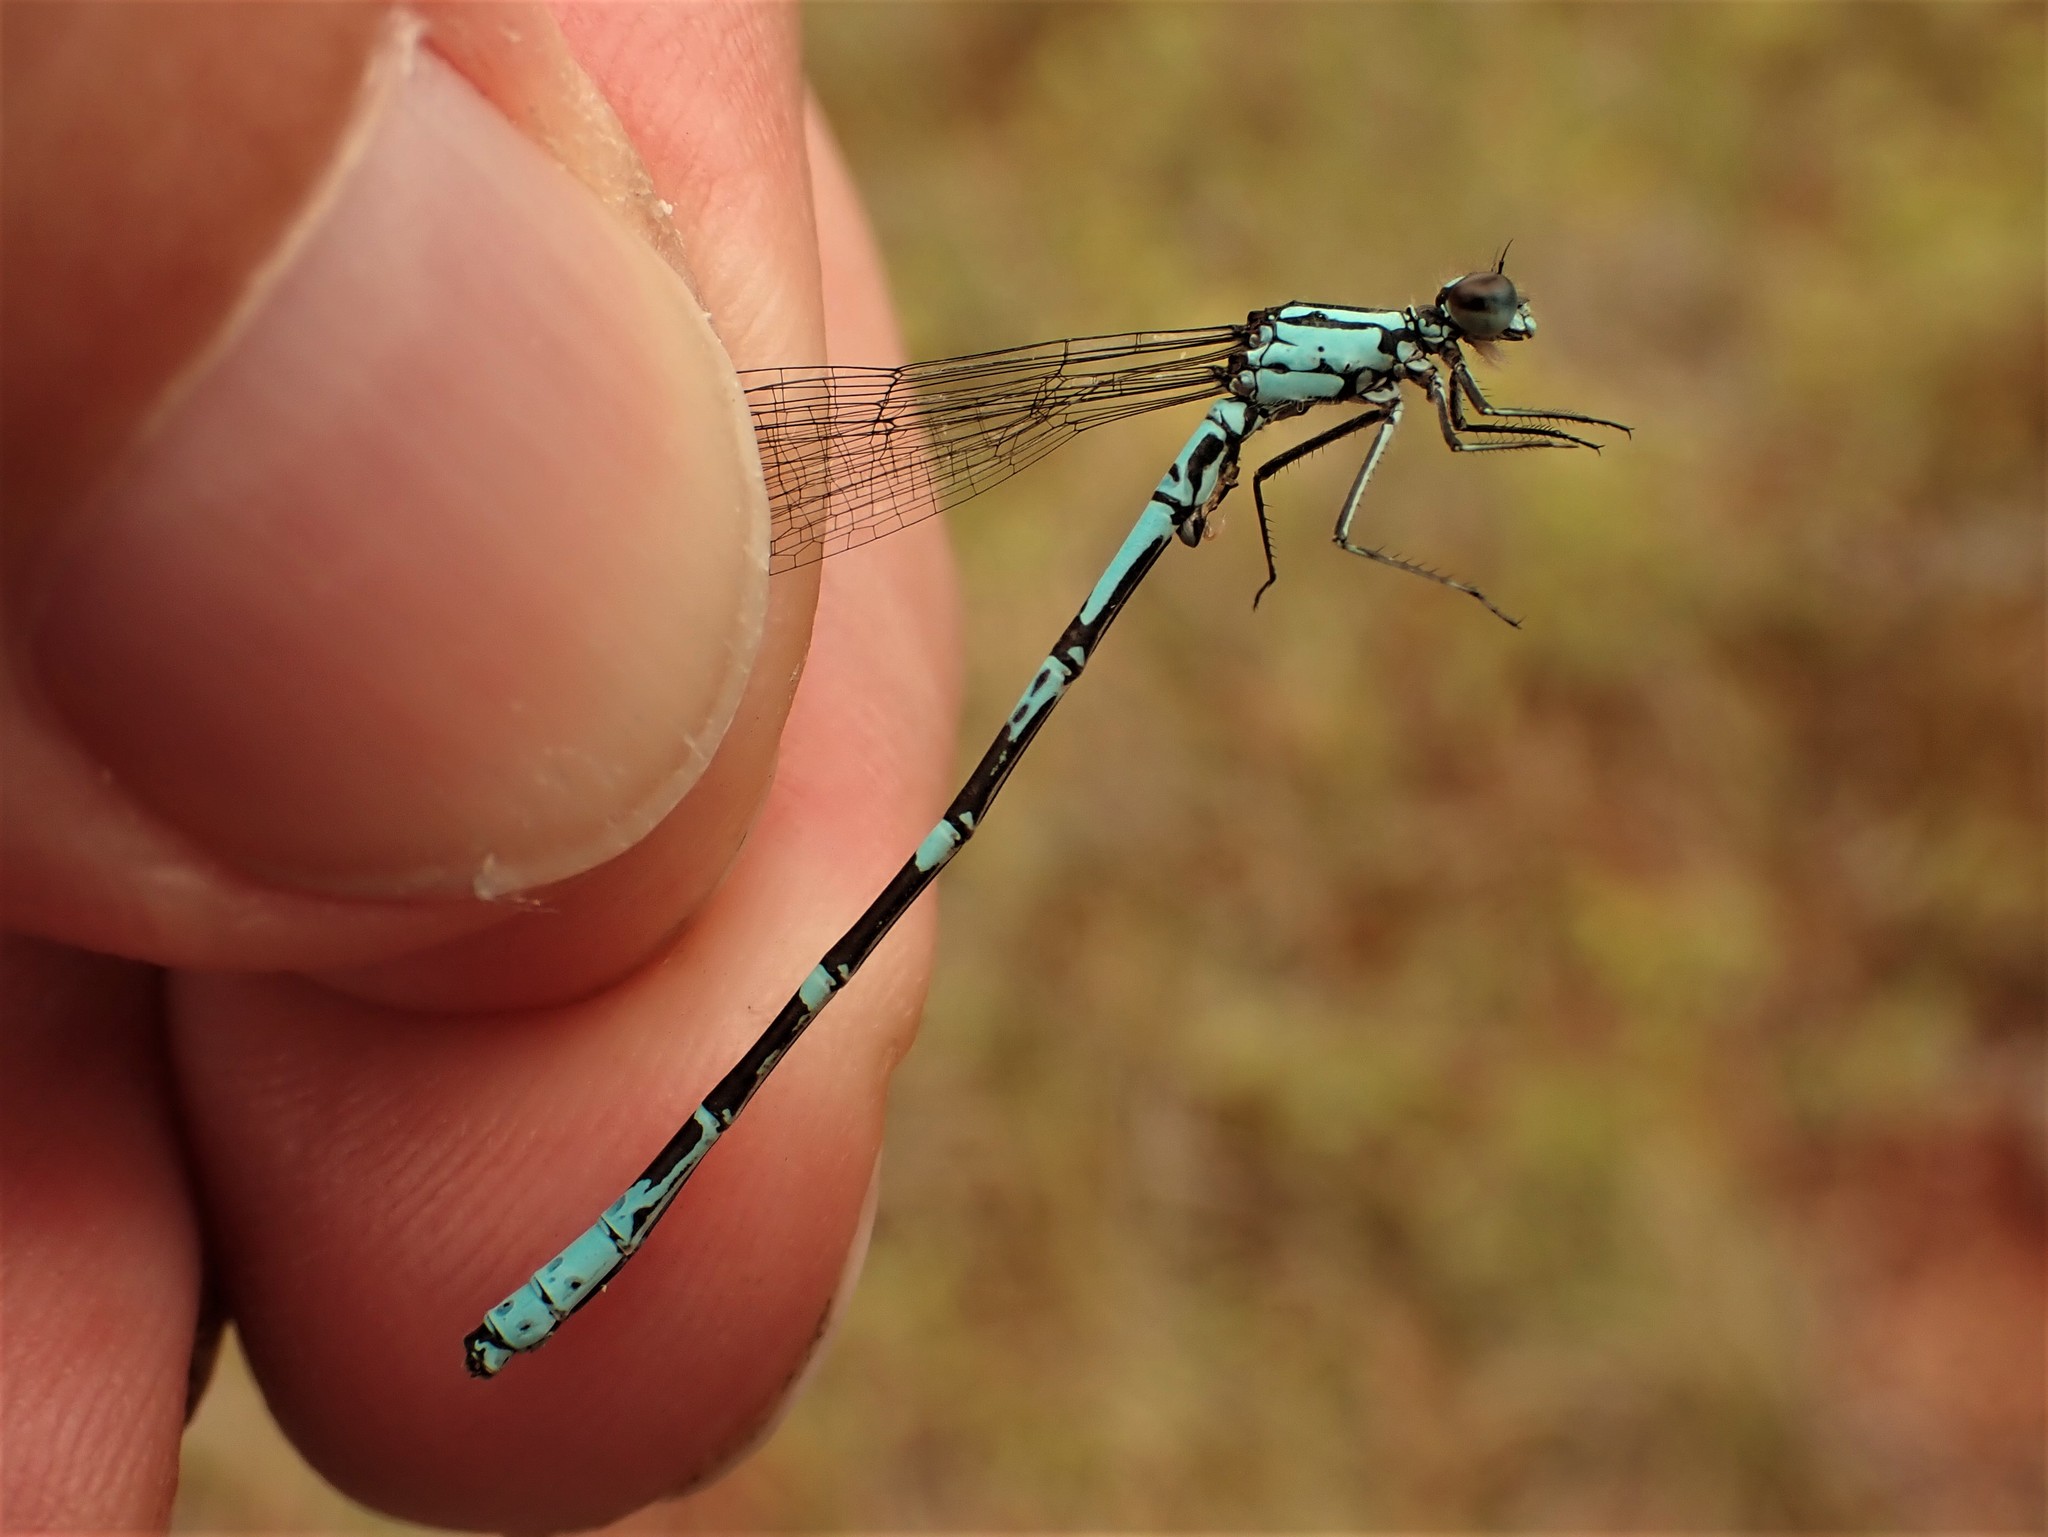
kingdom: Animalia
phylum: Arthropoda
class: Insecta
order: Odonata
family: Coenagrionidae
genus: Coenagrion
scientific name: Coenagrion interrogatum
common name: Subarctic bluet
